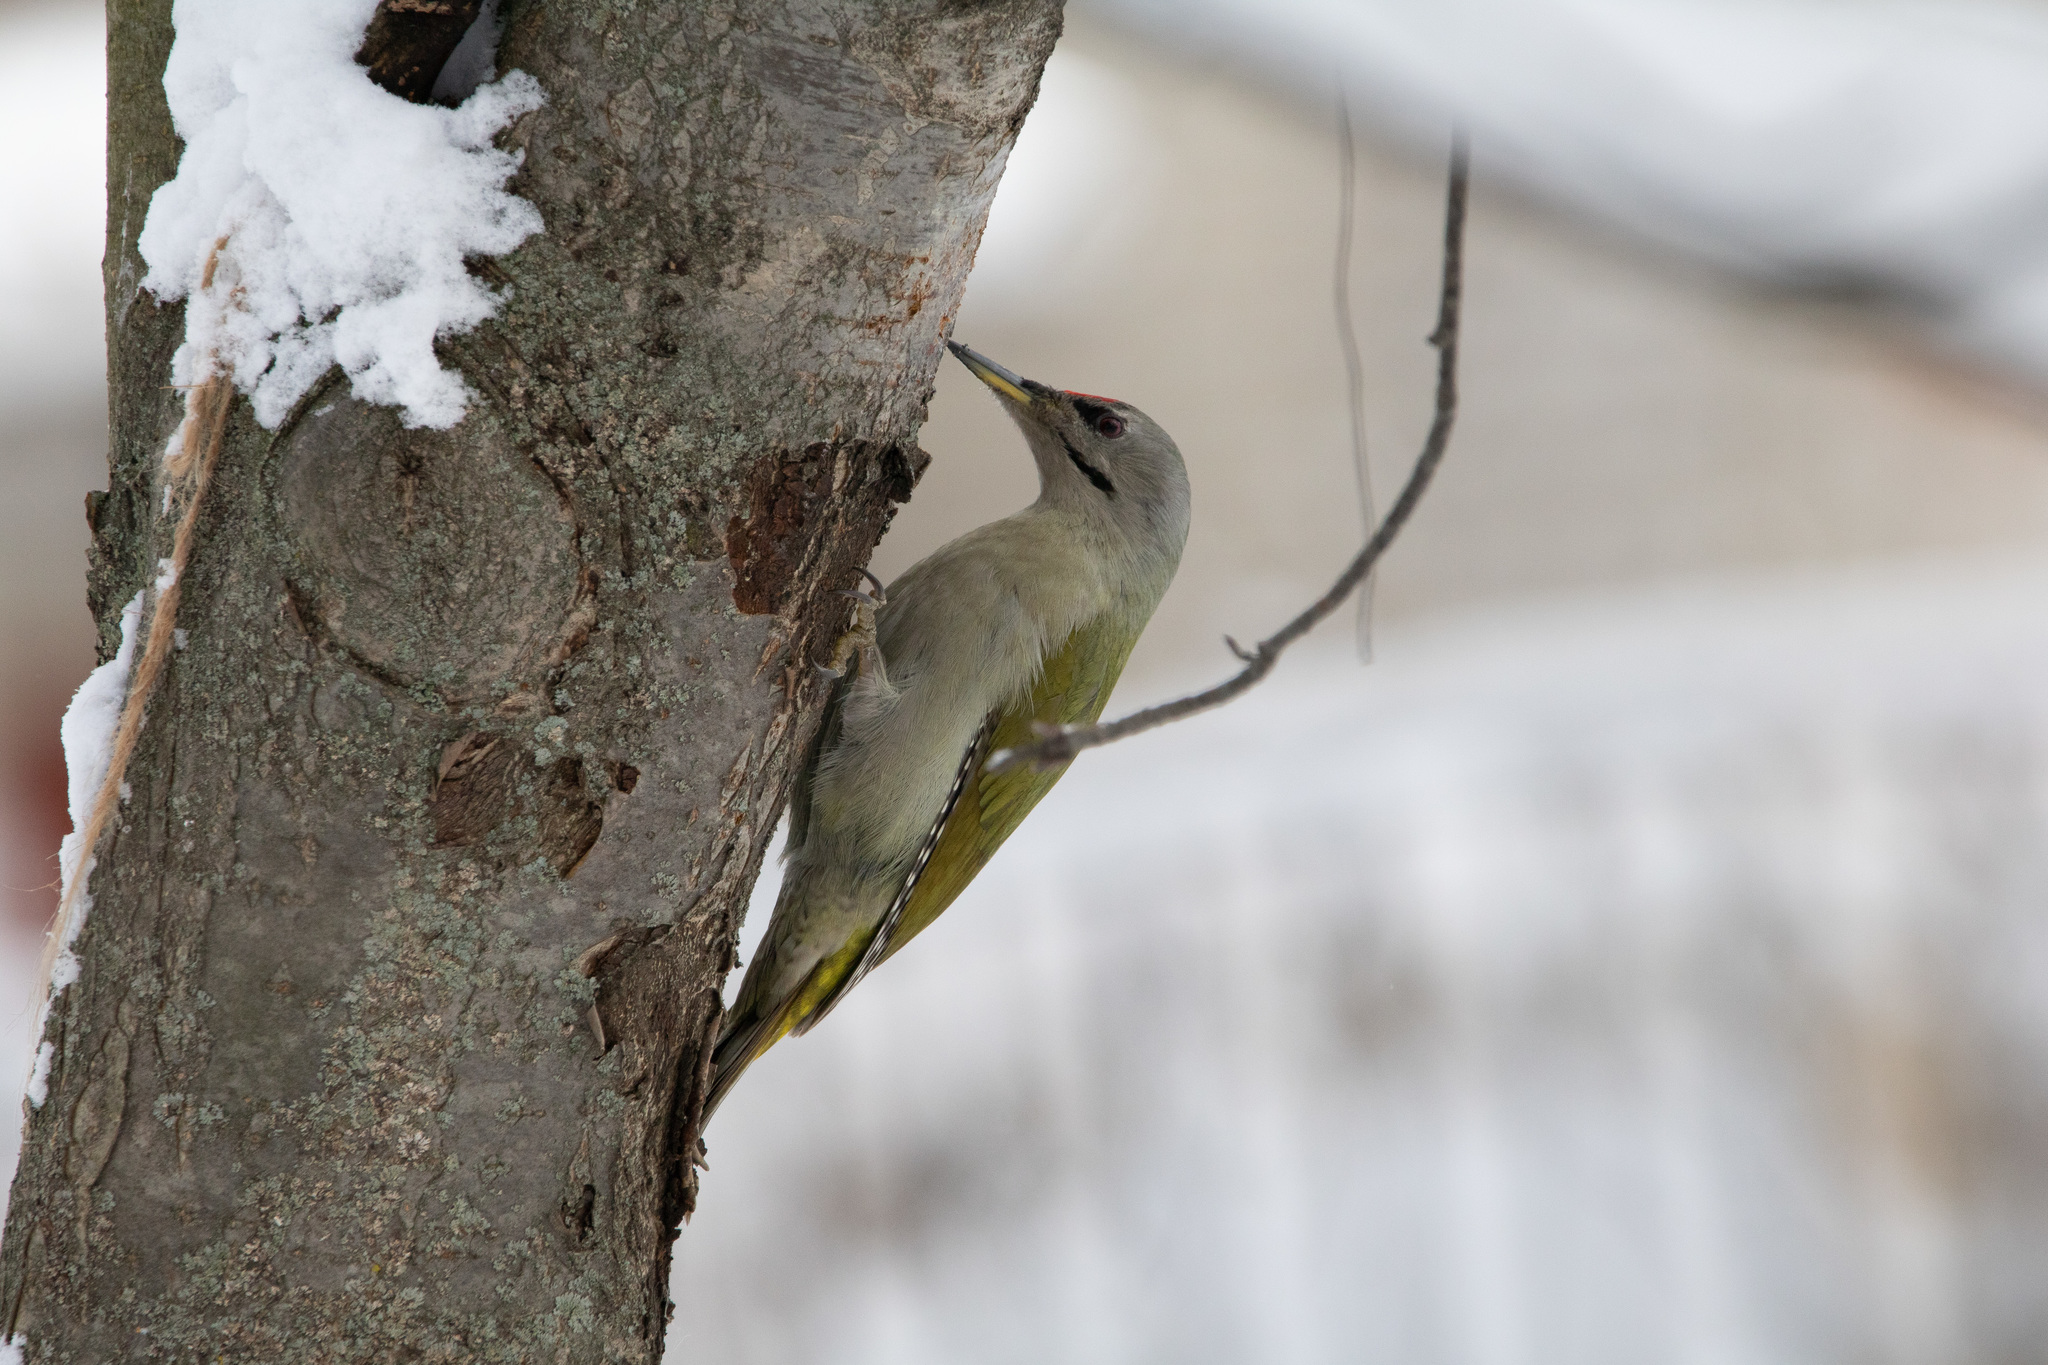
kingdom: Animalia
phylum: Chordata
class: Aves
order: Piciformes
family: Picidae
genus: Picus
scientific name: Picus canus
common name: Grey-headed woodpecker
